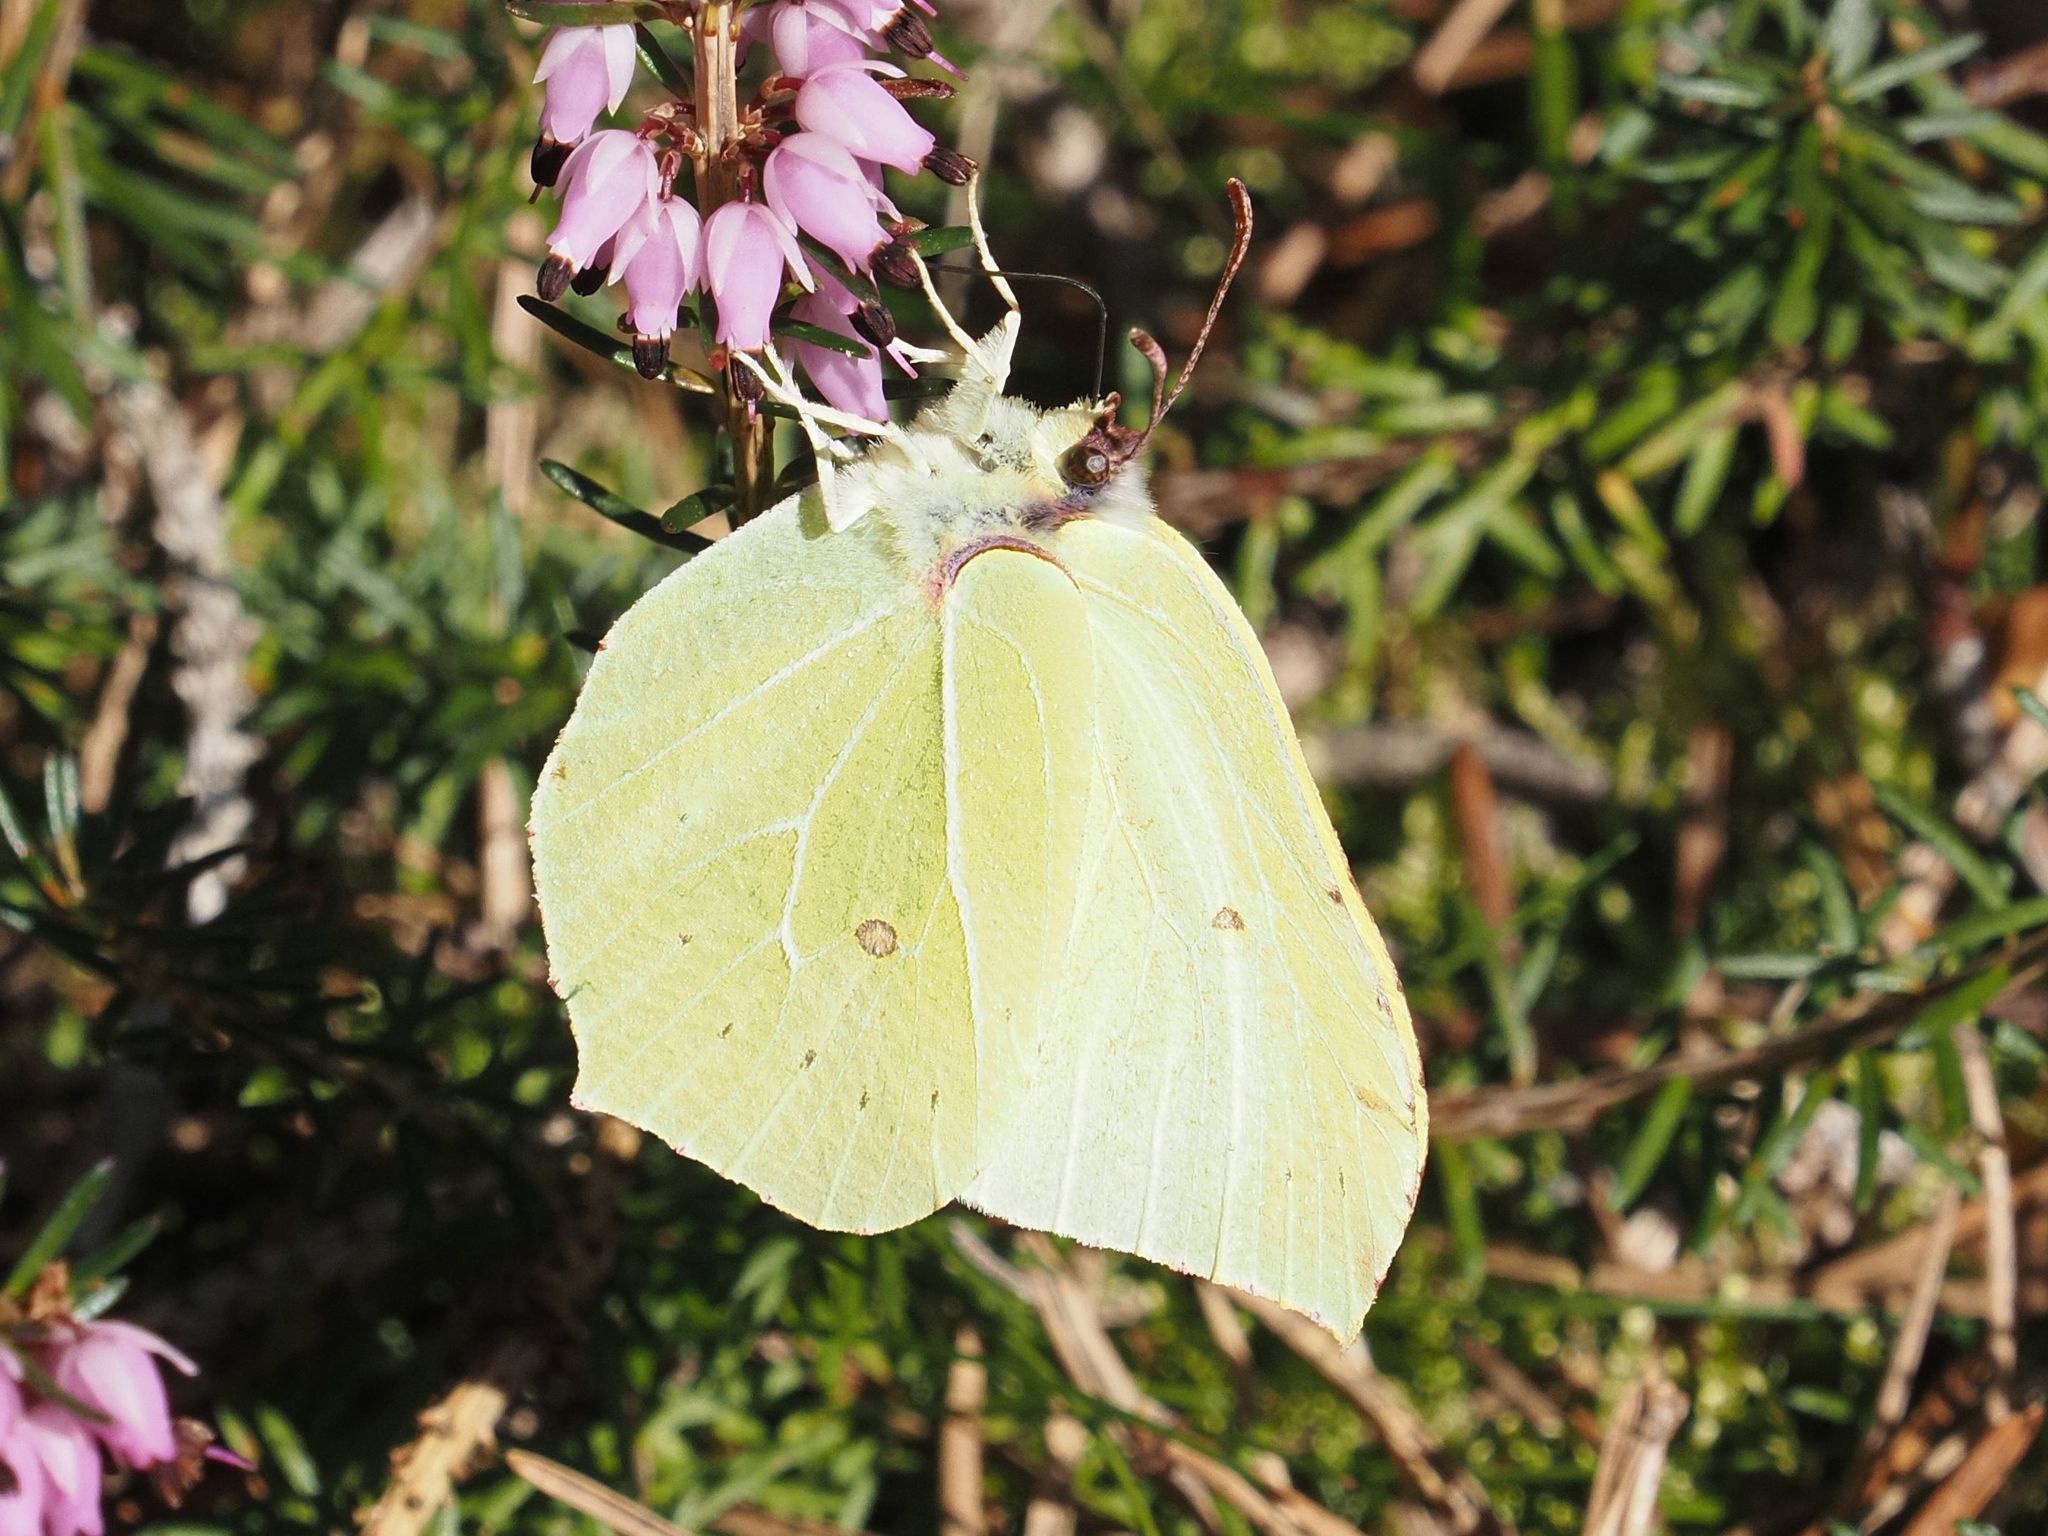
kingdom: Animalia
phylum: Arthropoda
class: Insecta
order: Lepidoptera
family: Pieridae
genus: Gonepteryx
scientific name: Gonepteryx rhamni
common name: Brimstone
